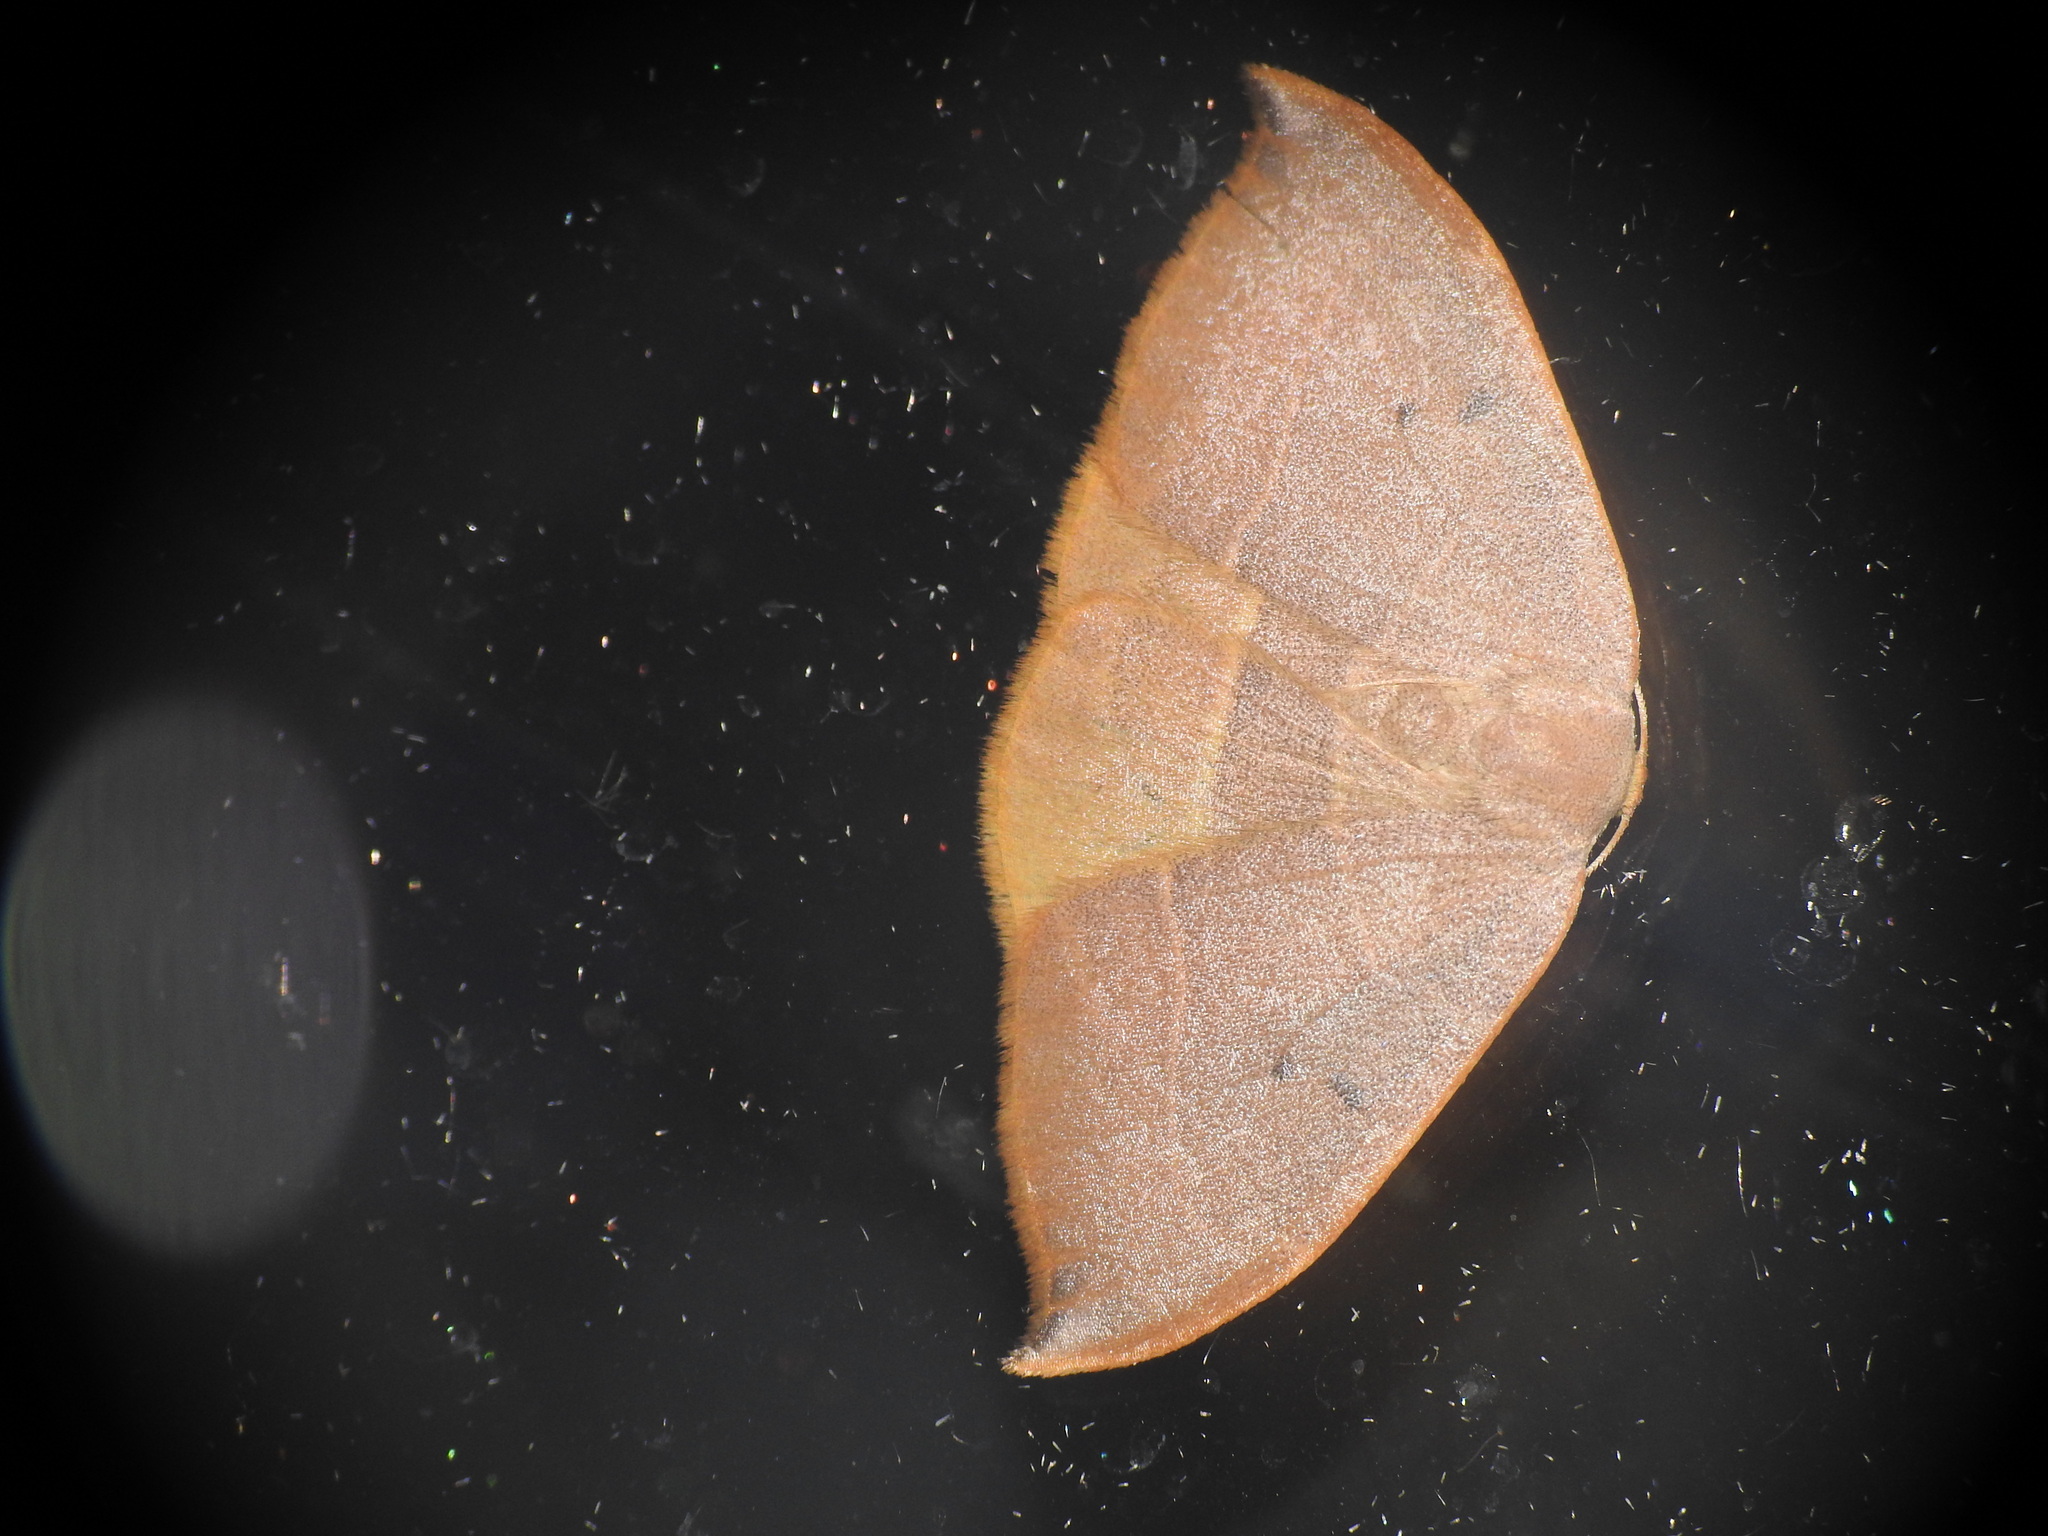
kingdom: Animalia
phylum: Arthropoda
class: Insecta
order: Lepidoptera
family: Drepanidae
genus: Watsonalla
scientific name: Watsonalla uncinula
